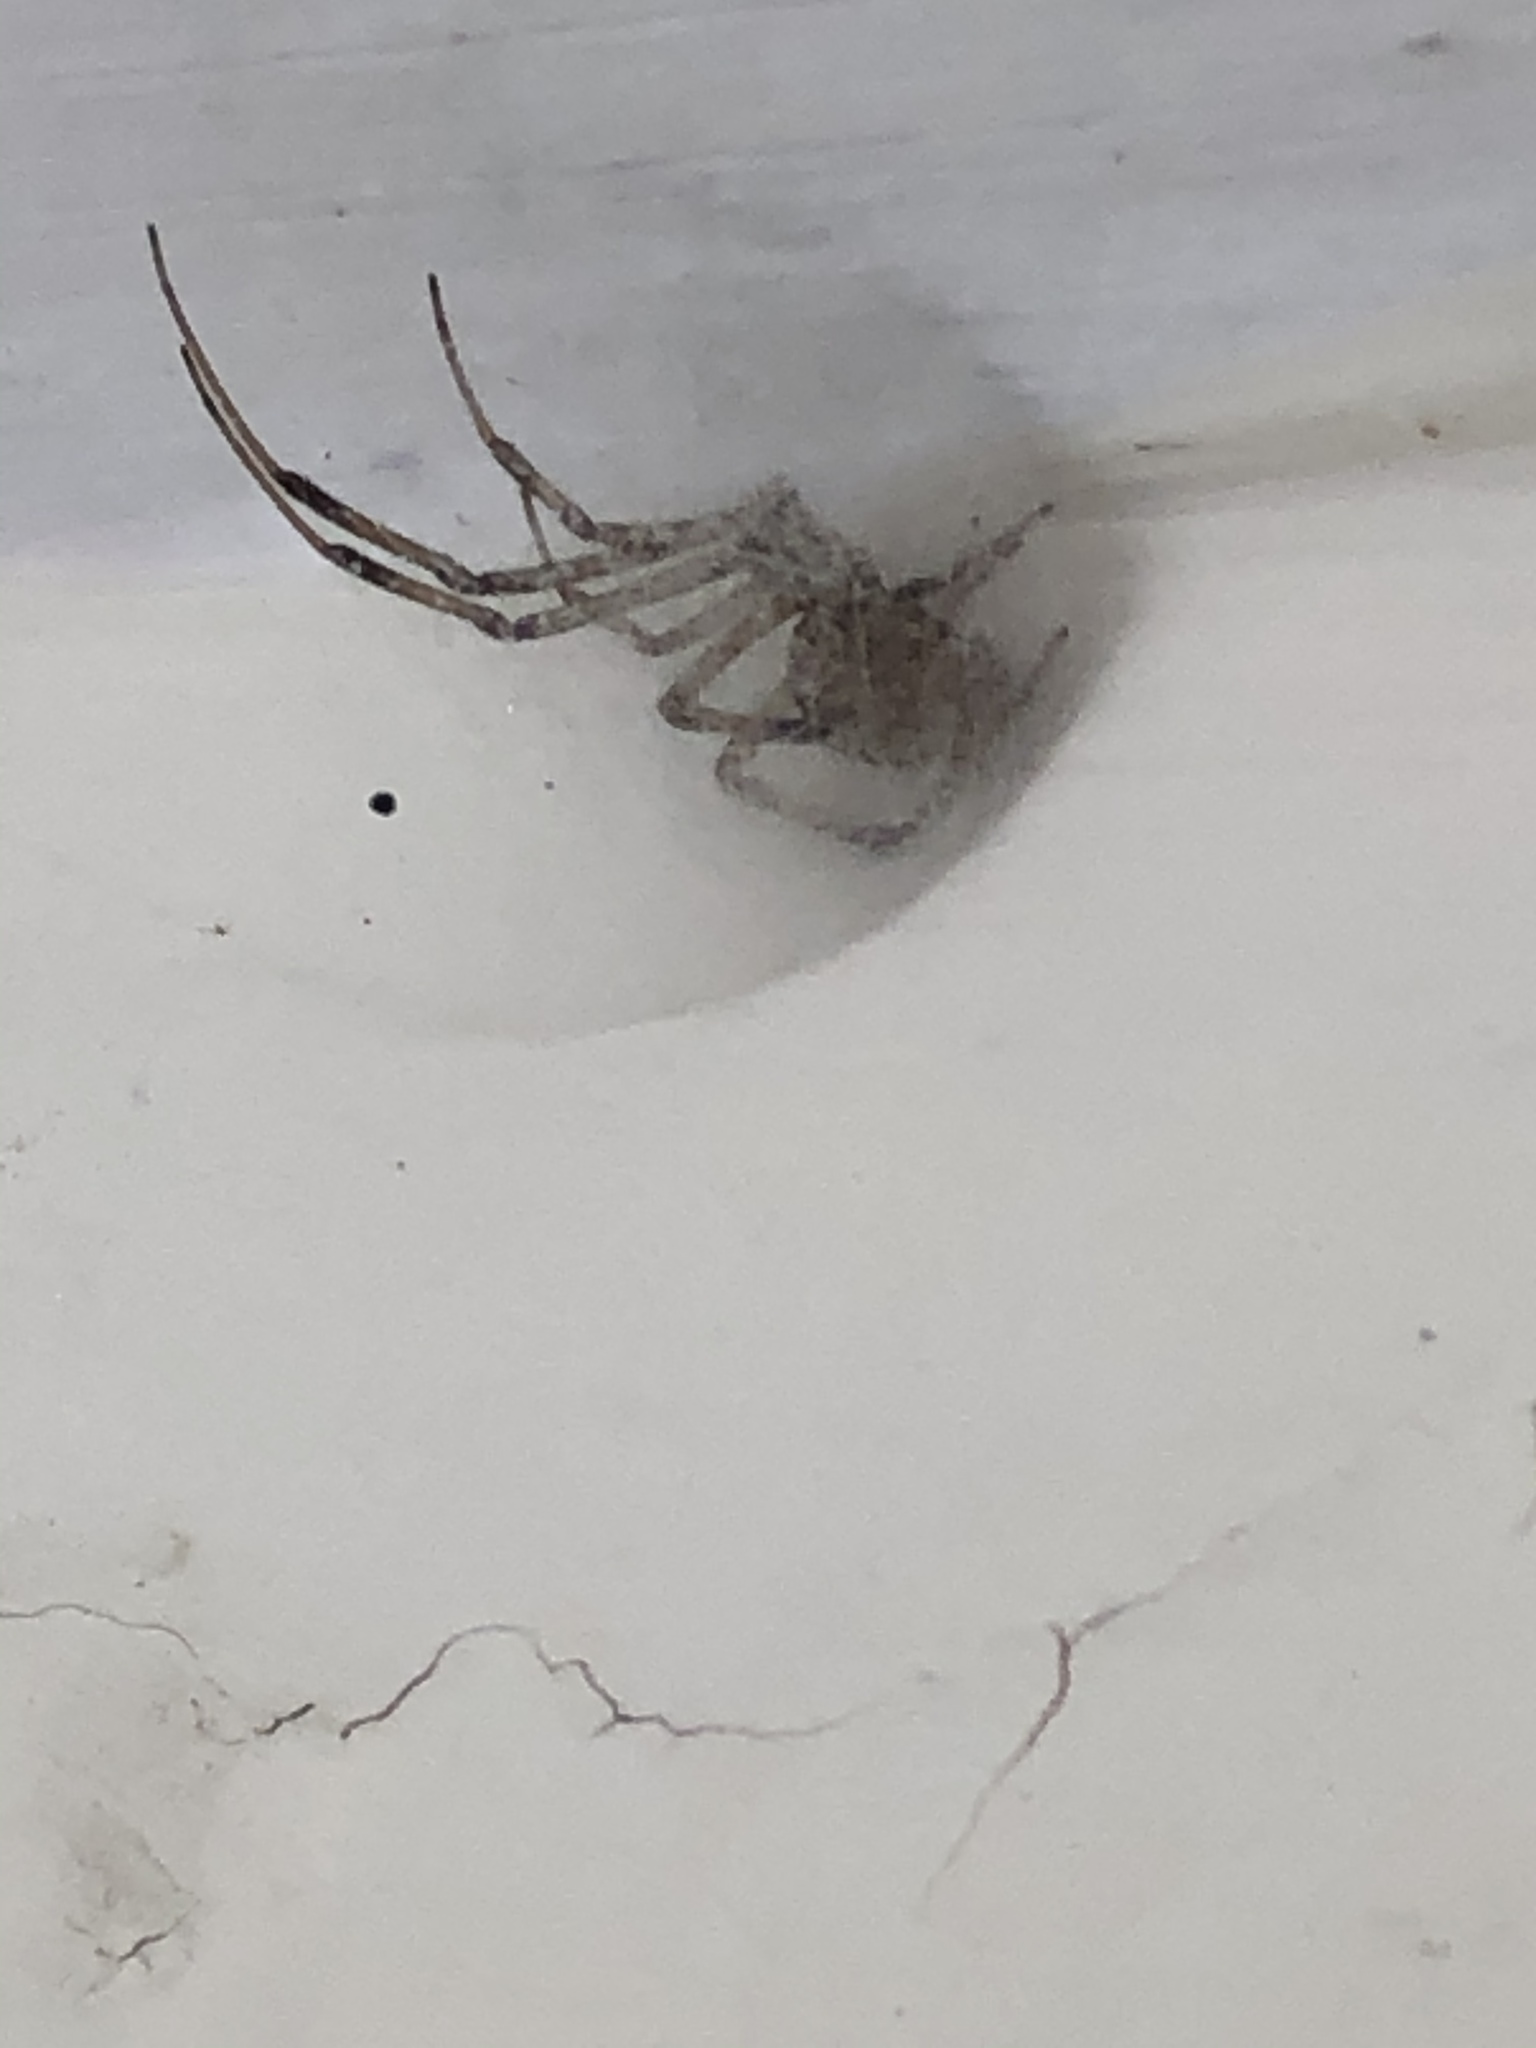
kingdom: Animalia
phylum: Arthropoda
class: Arachnida
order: Araneae
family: Theridiidae
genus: Latrodectus
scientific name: Latrodectus geometricus
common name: Brown widow spider
